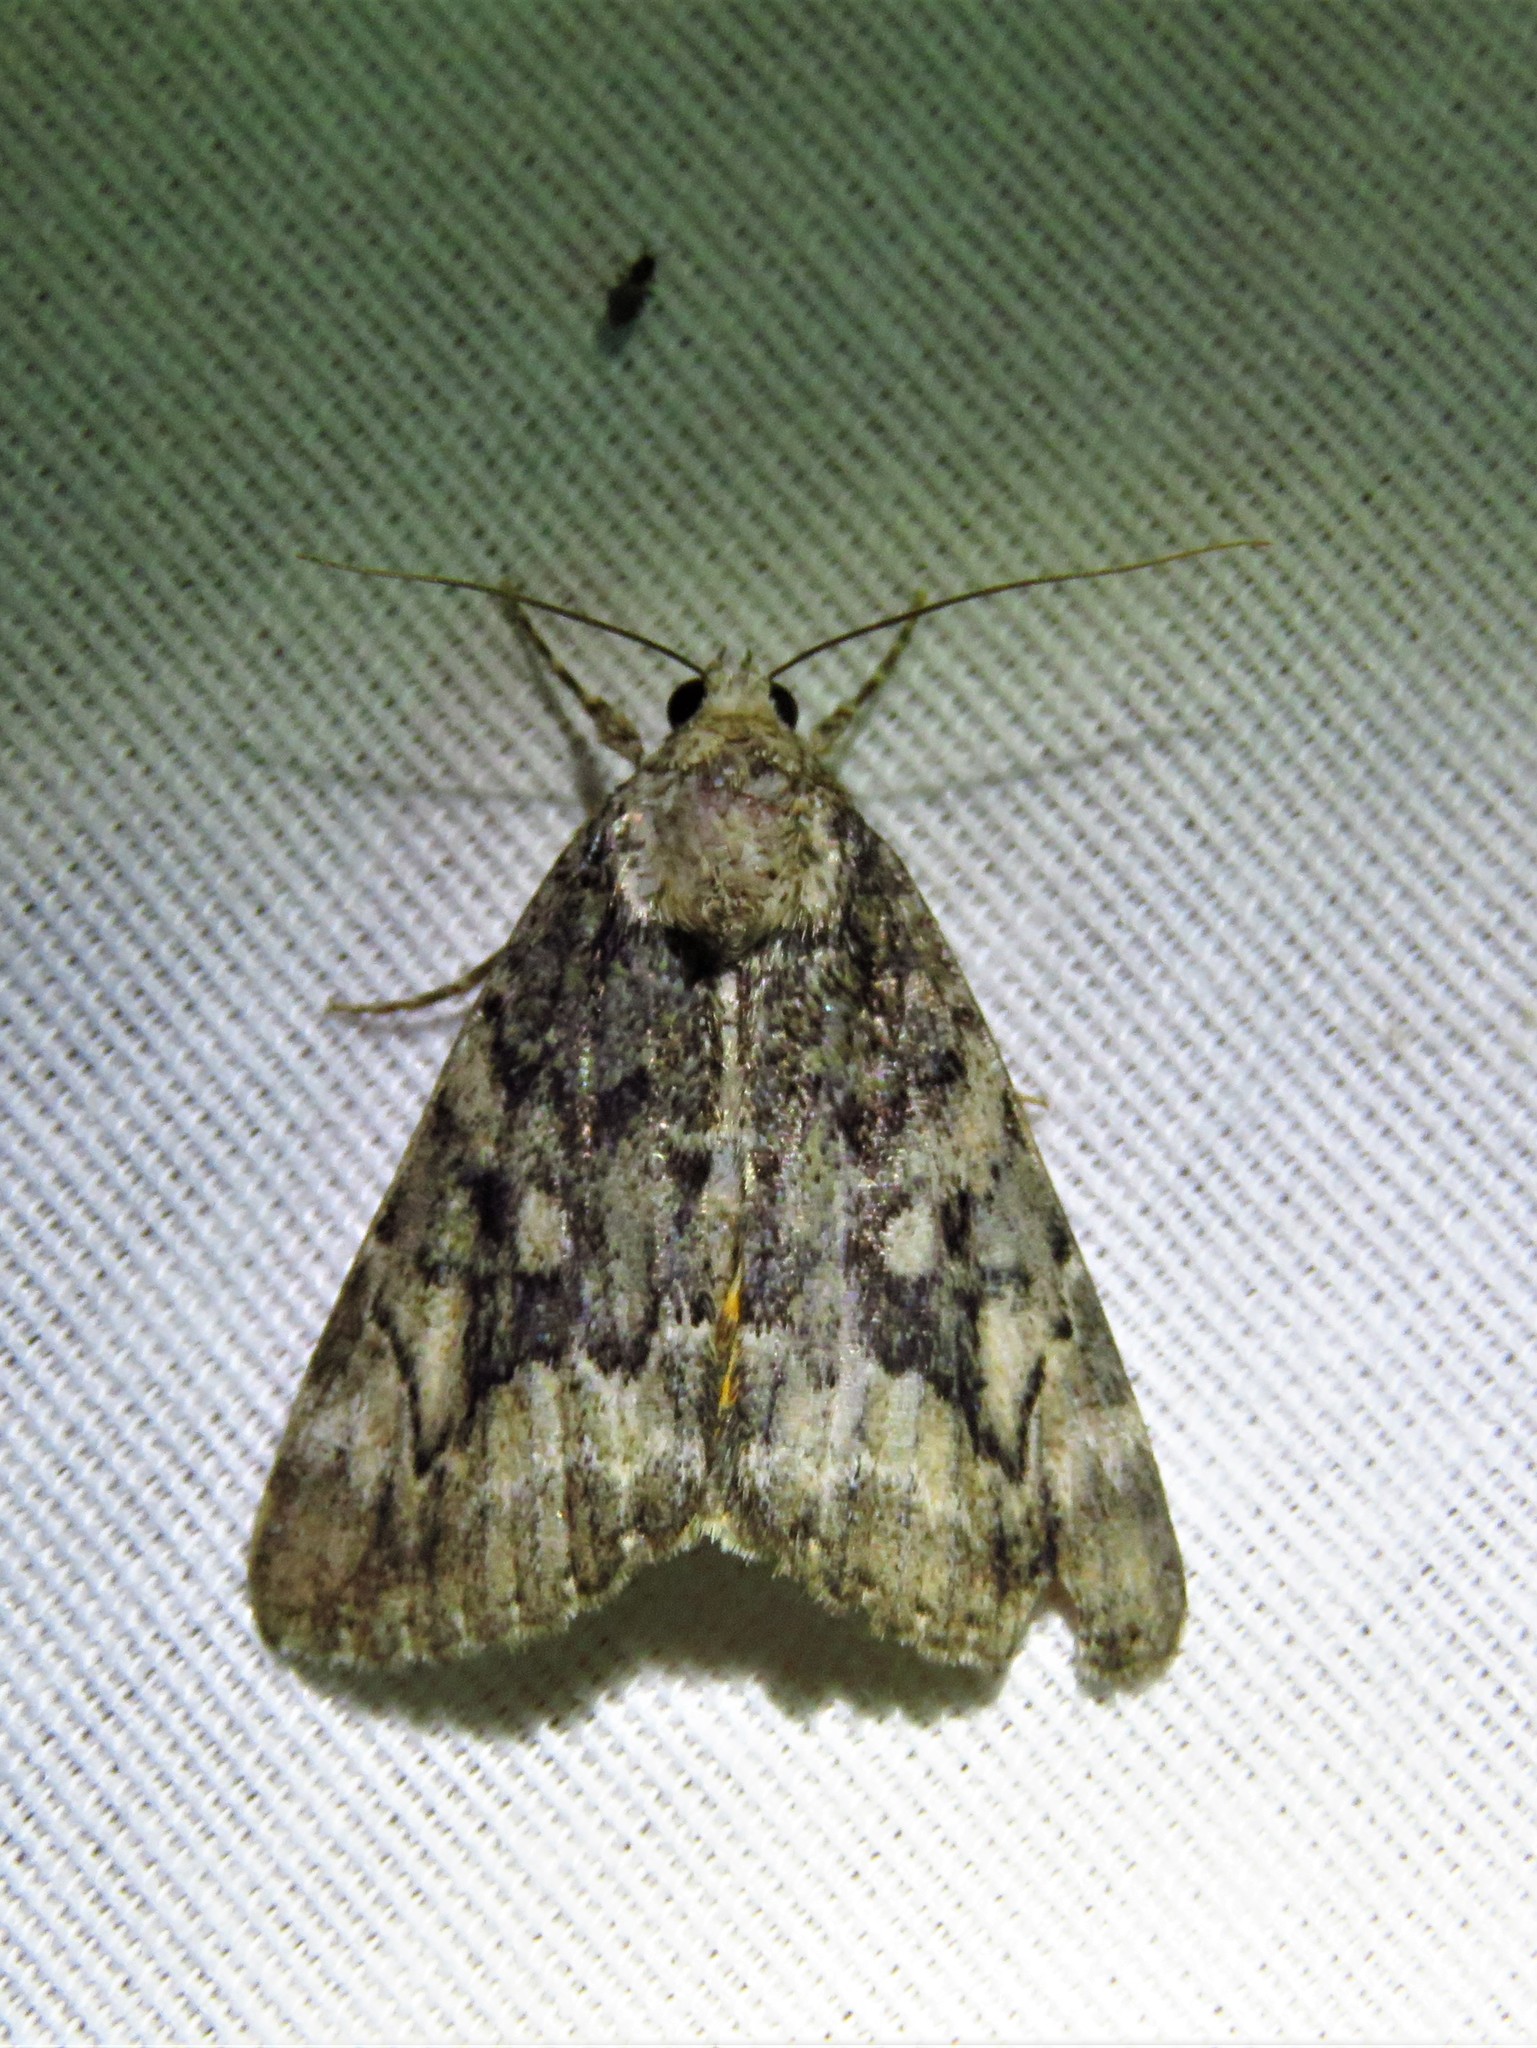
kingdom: Animalia
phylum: Arthropoda
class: Insecta
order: Lepidoptera
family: Erebidae
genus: Catocala
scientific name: Catocala micronympha
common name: Little nymph underwing
